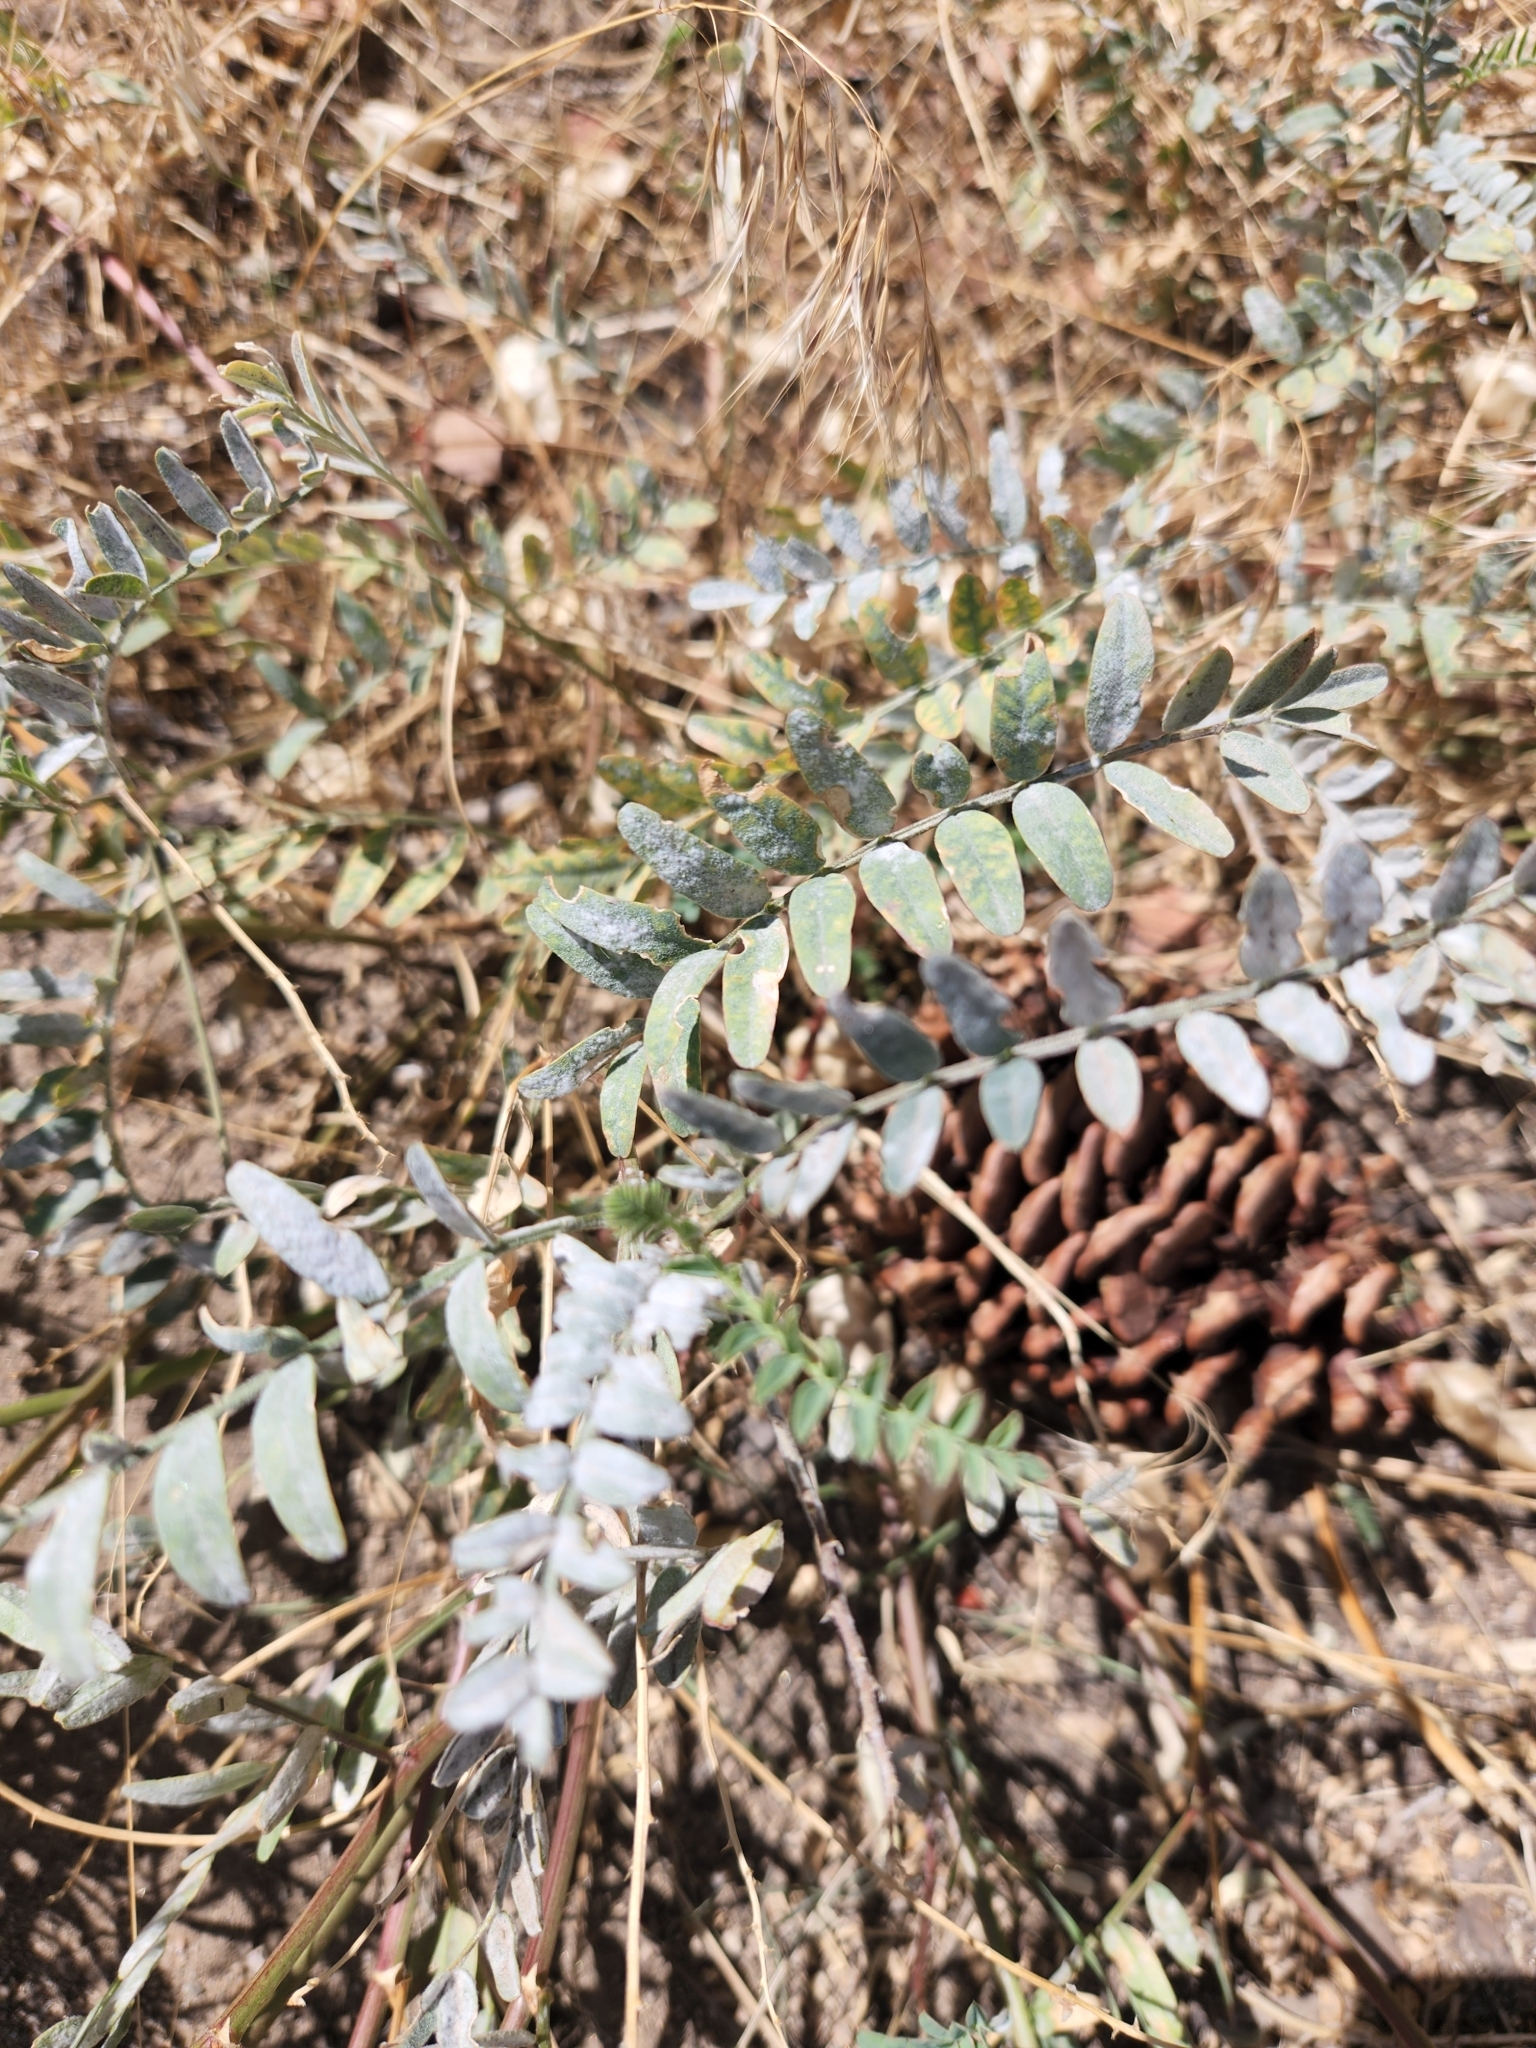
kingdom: Plantae
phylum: Tracheophyta
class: Magnoliopsida
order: Fabales
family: Fabaceae
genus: Astragalus
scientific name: Astragalus douglasii
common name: Jacumba milkvetch
